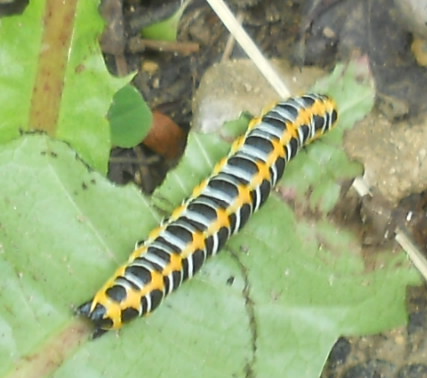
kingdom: Animalia
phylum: Arthropoda
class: Insecta
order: Lepidoptera
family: Noctuidae
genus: Cucullia
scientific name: Cucullia lactucae
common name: Lettuce shark
